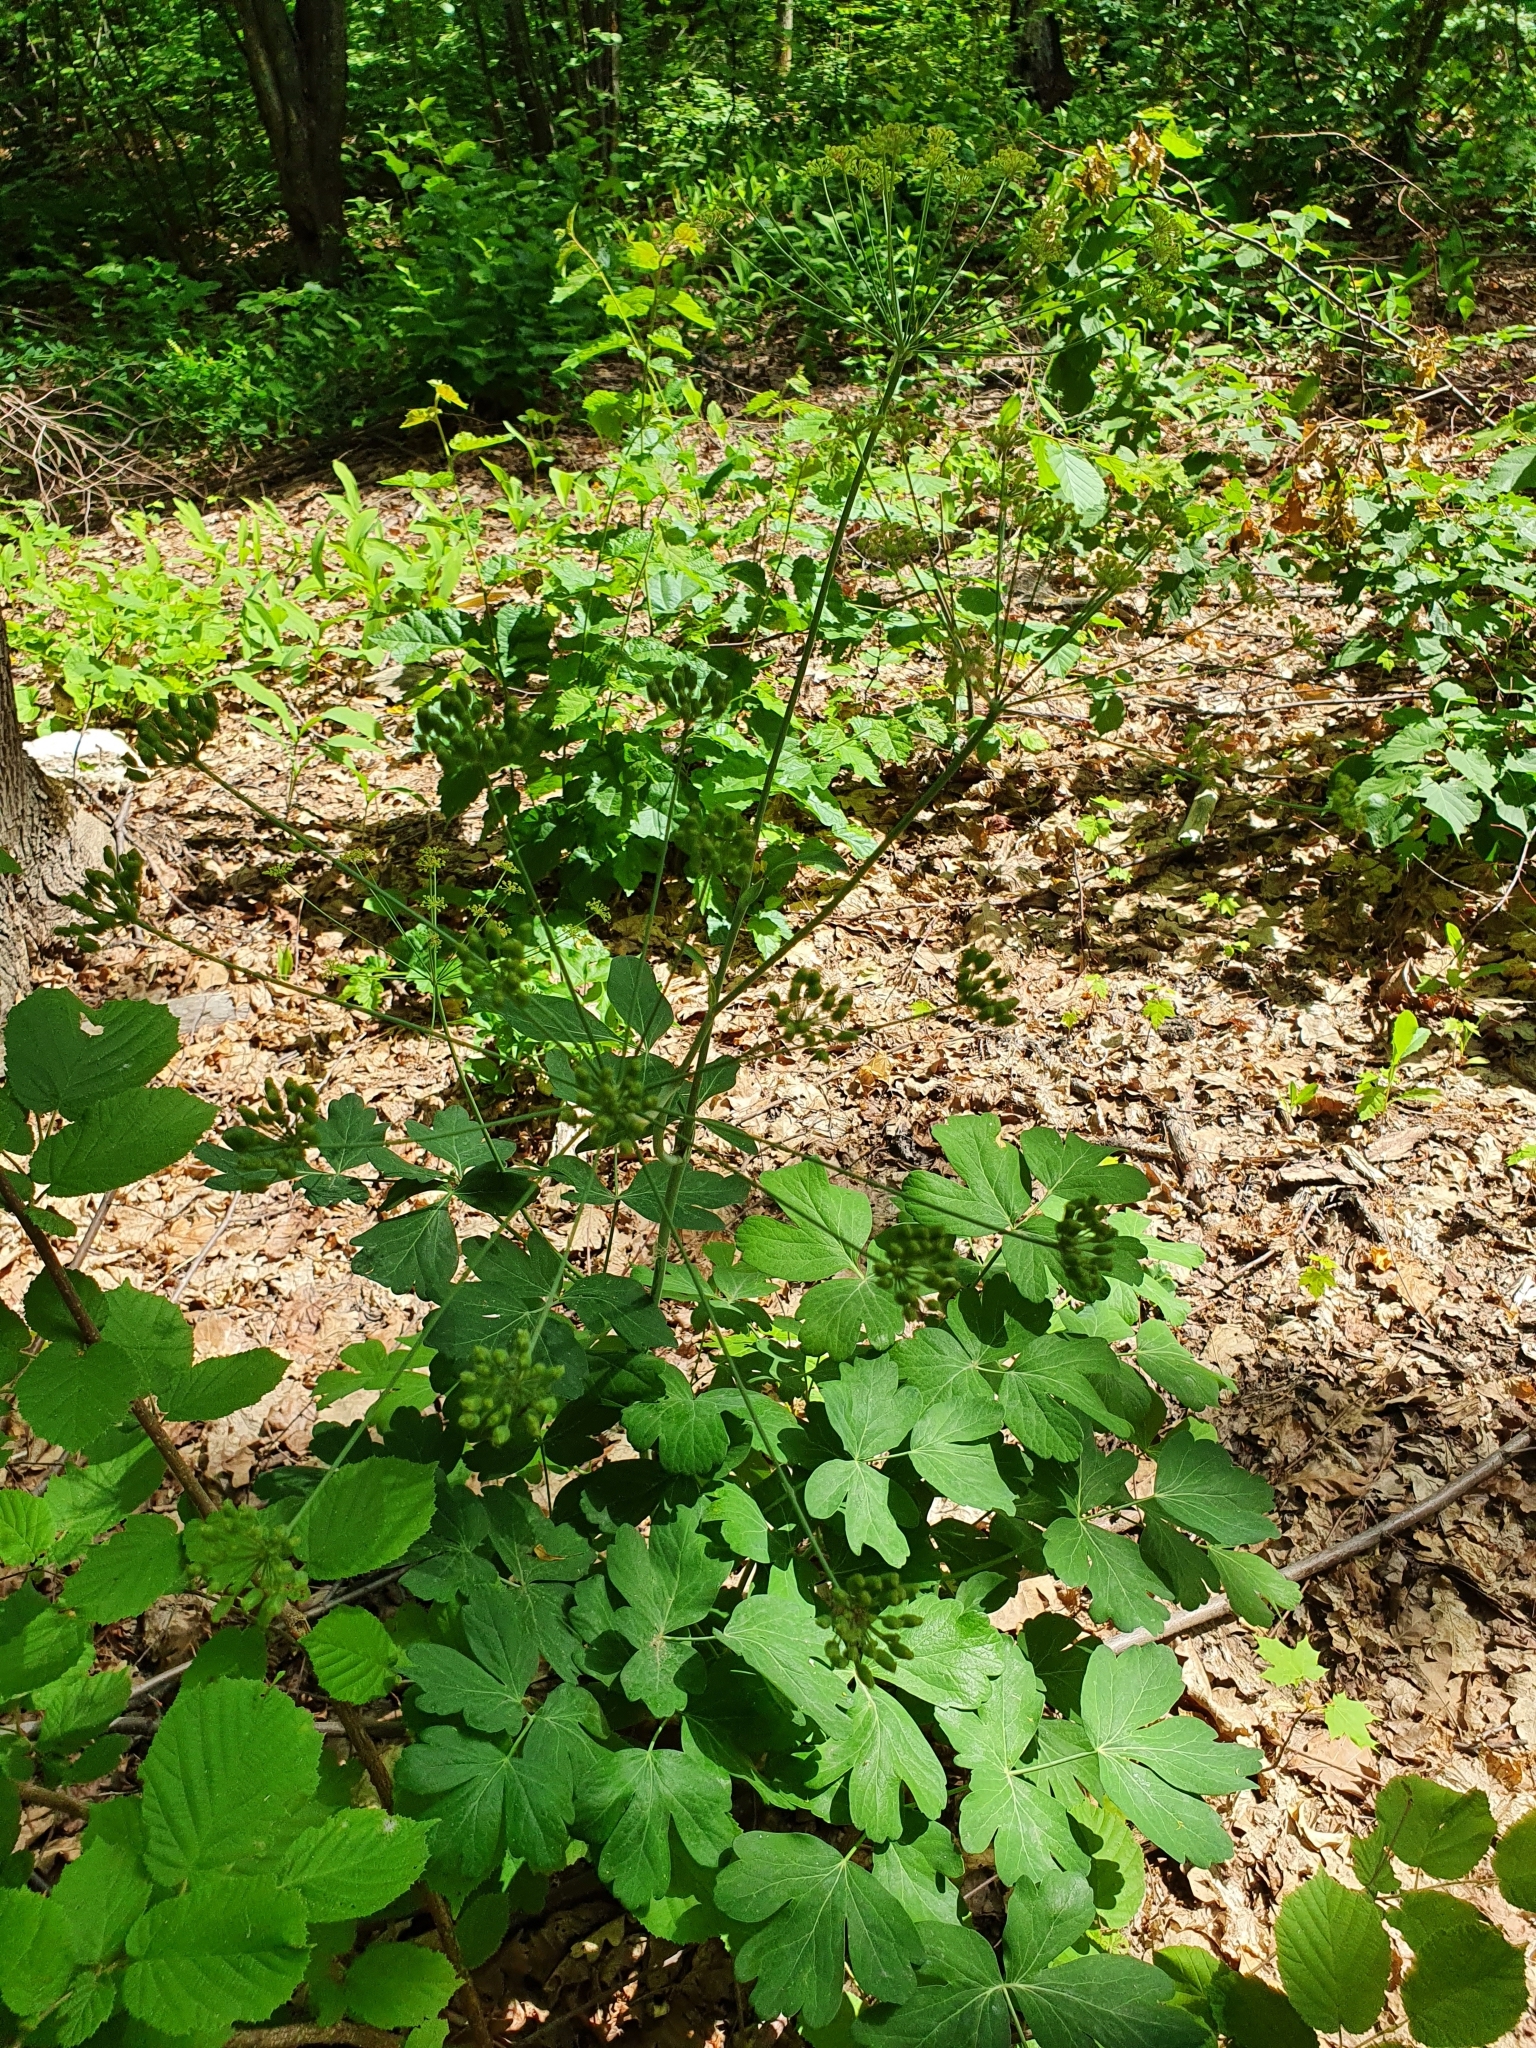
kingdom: Plantae
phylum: Tracheophyta
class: Magnoliopsida
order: Apiales
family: Apiaceae
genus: Laser
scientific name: Laser trilobum
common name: Laser
